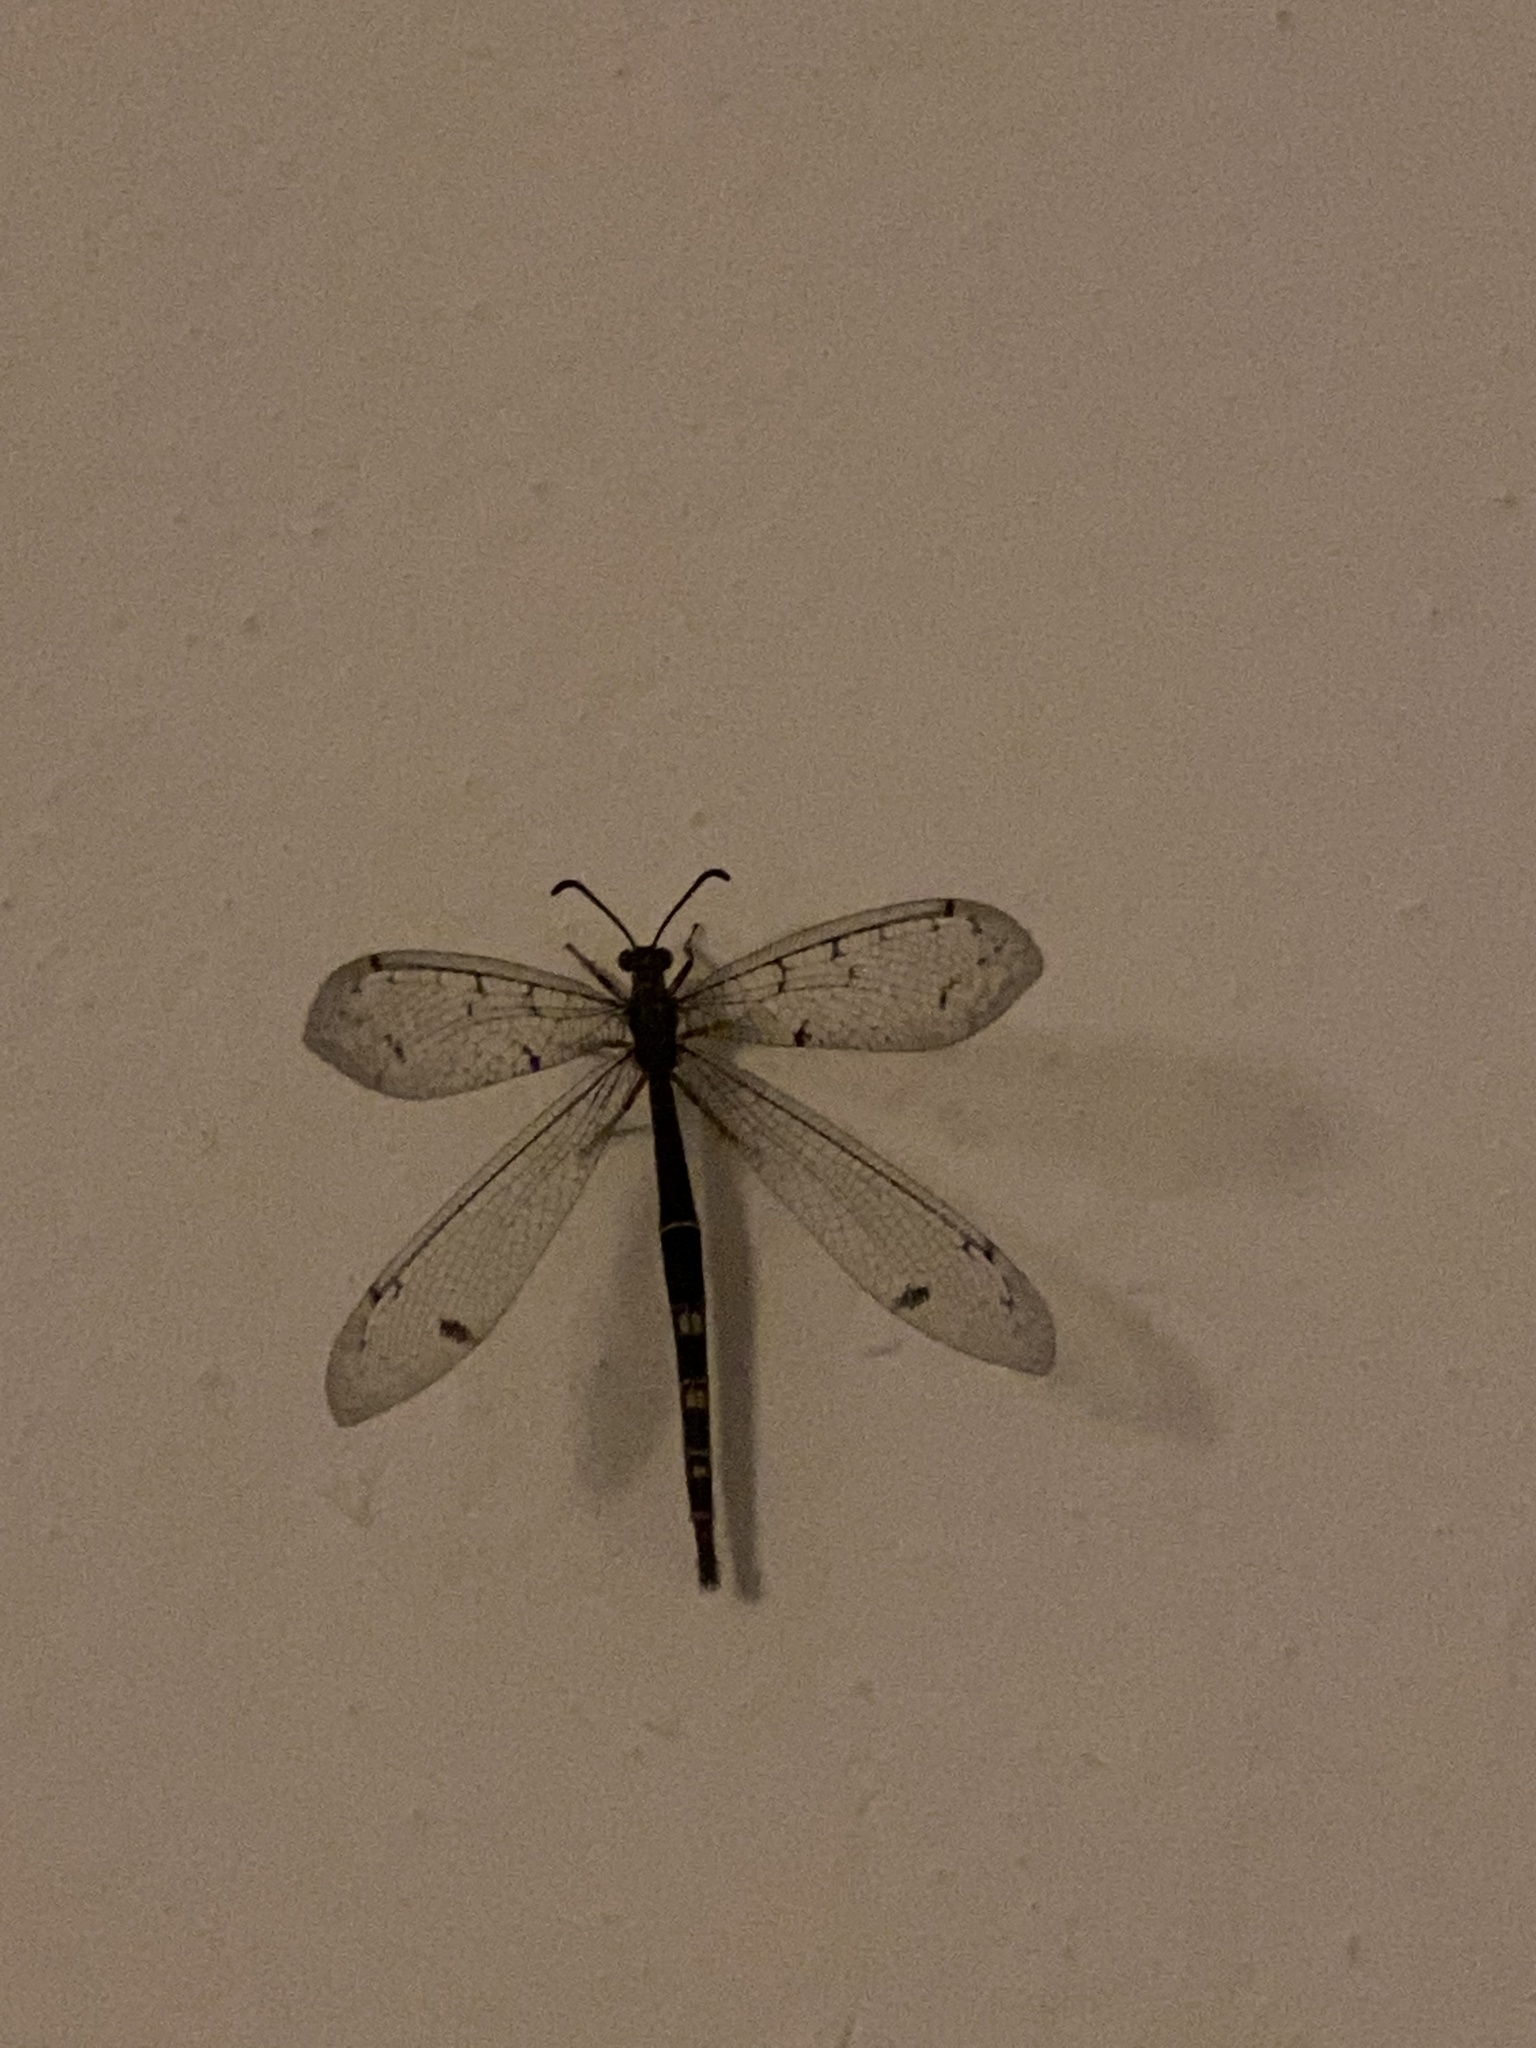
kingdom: Animalia
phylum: Arthropoda
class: Insecta
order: Neuroptera
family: Myrmeleontidae
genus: Distoleon
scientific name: Distoleon tetragrammicus
